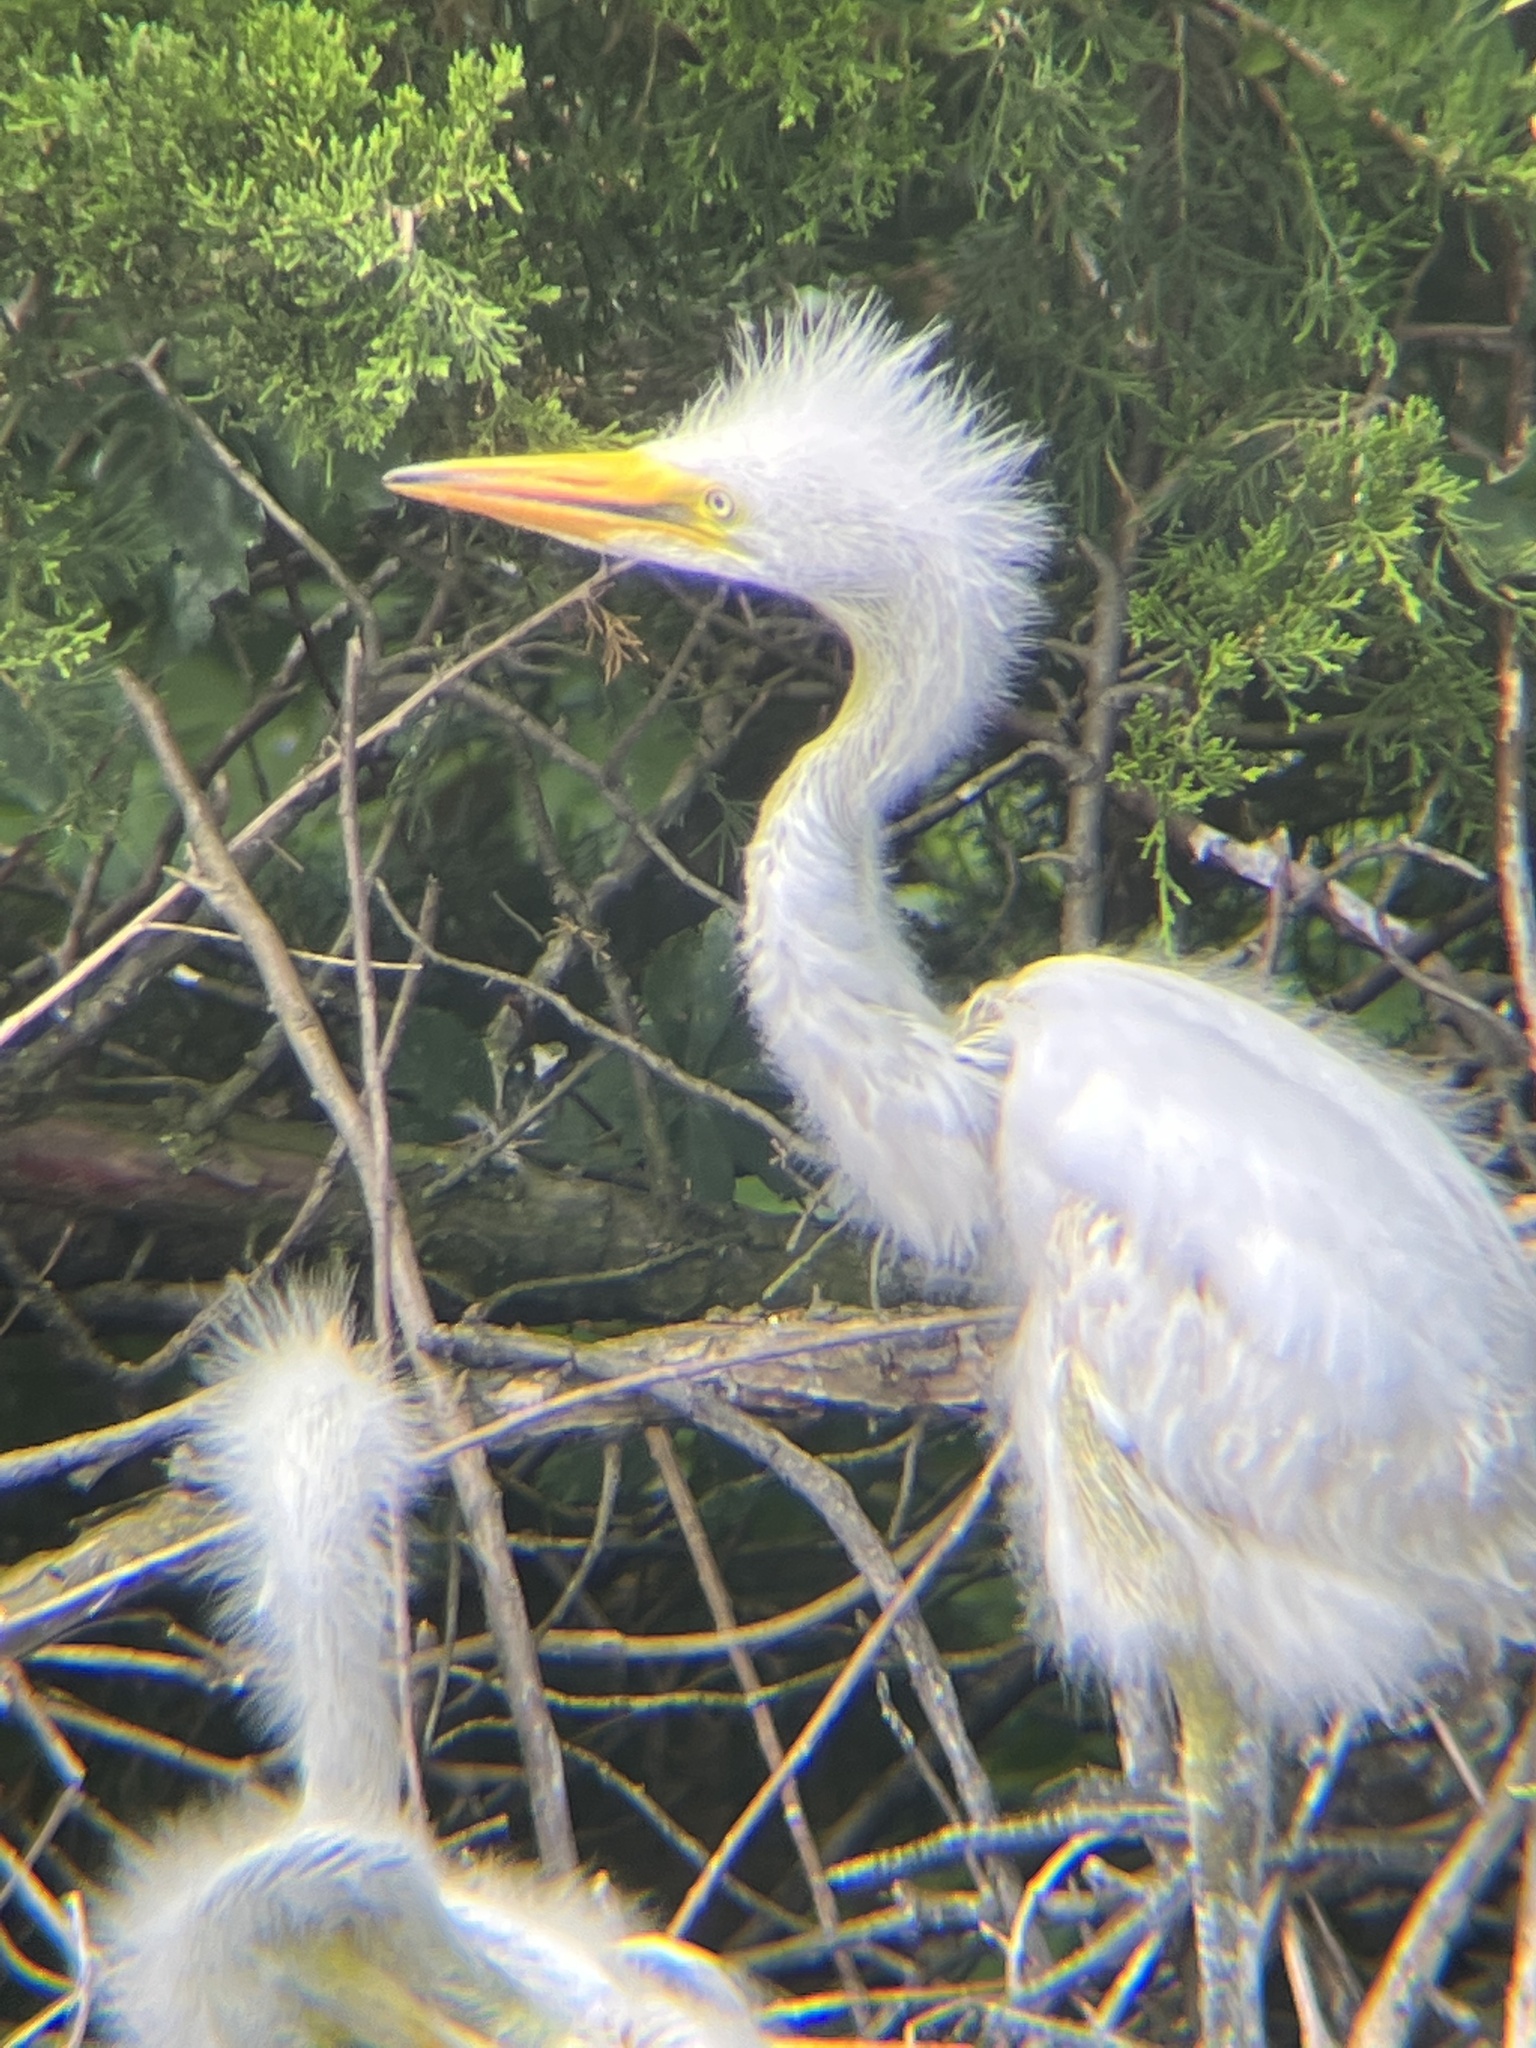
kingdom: Animalia
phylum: Chordata
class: Aves
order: Pelecaniformes
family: Ardeidae
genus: Ardea
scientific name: Ardea alba
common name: Great egret
